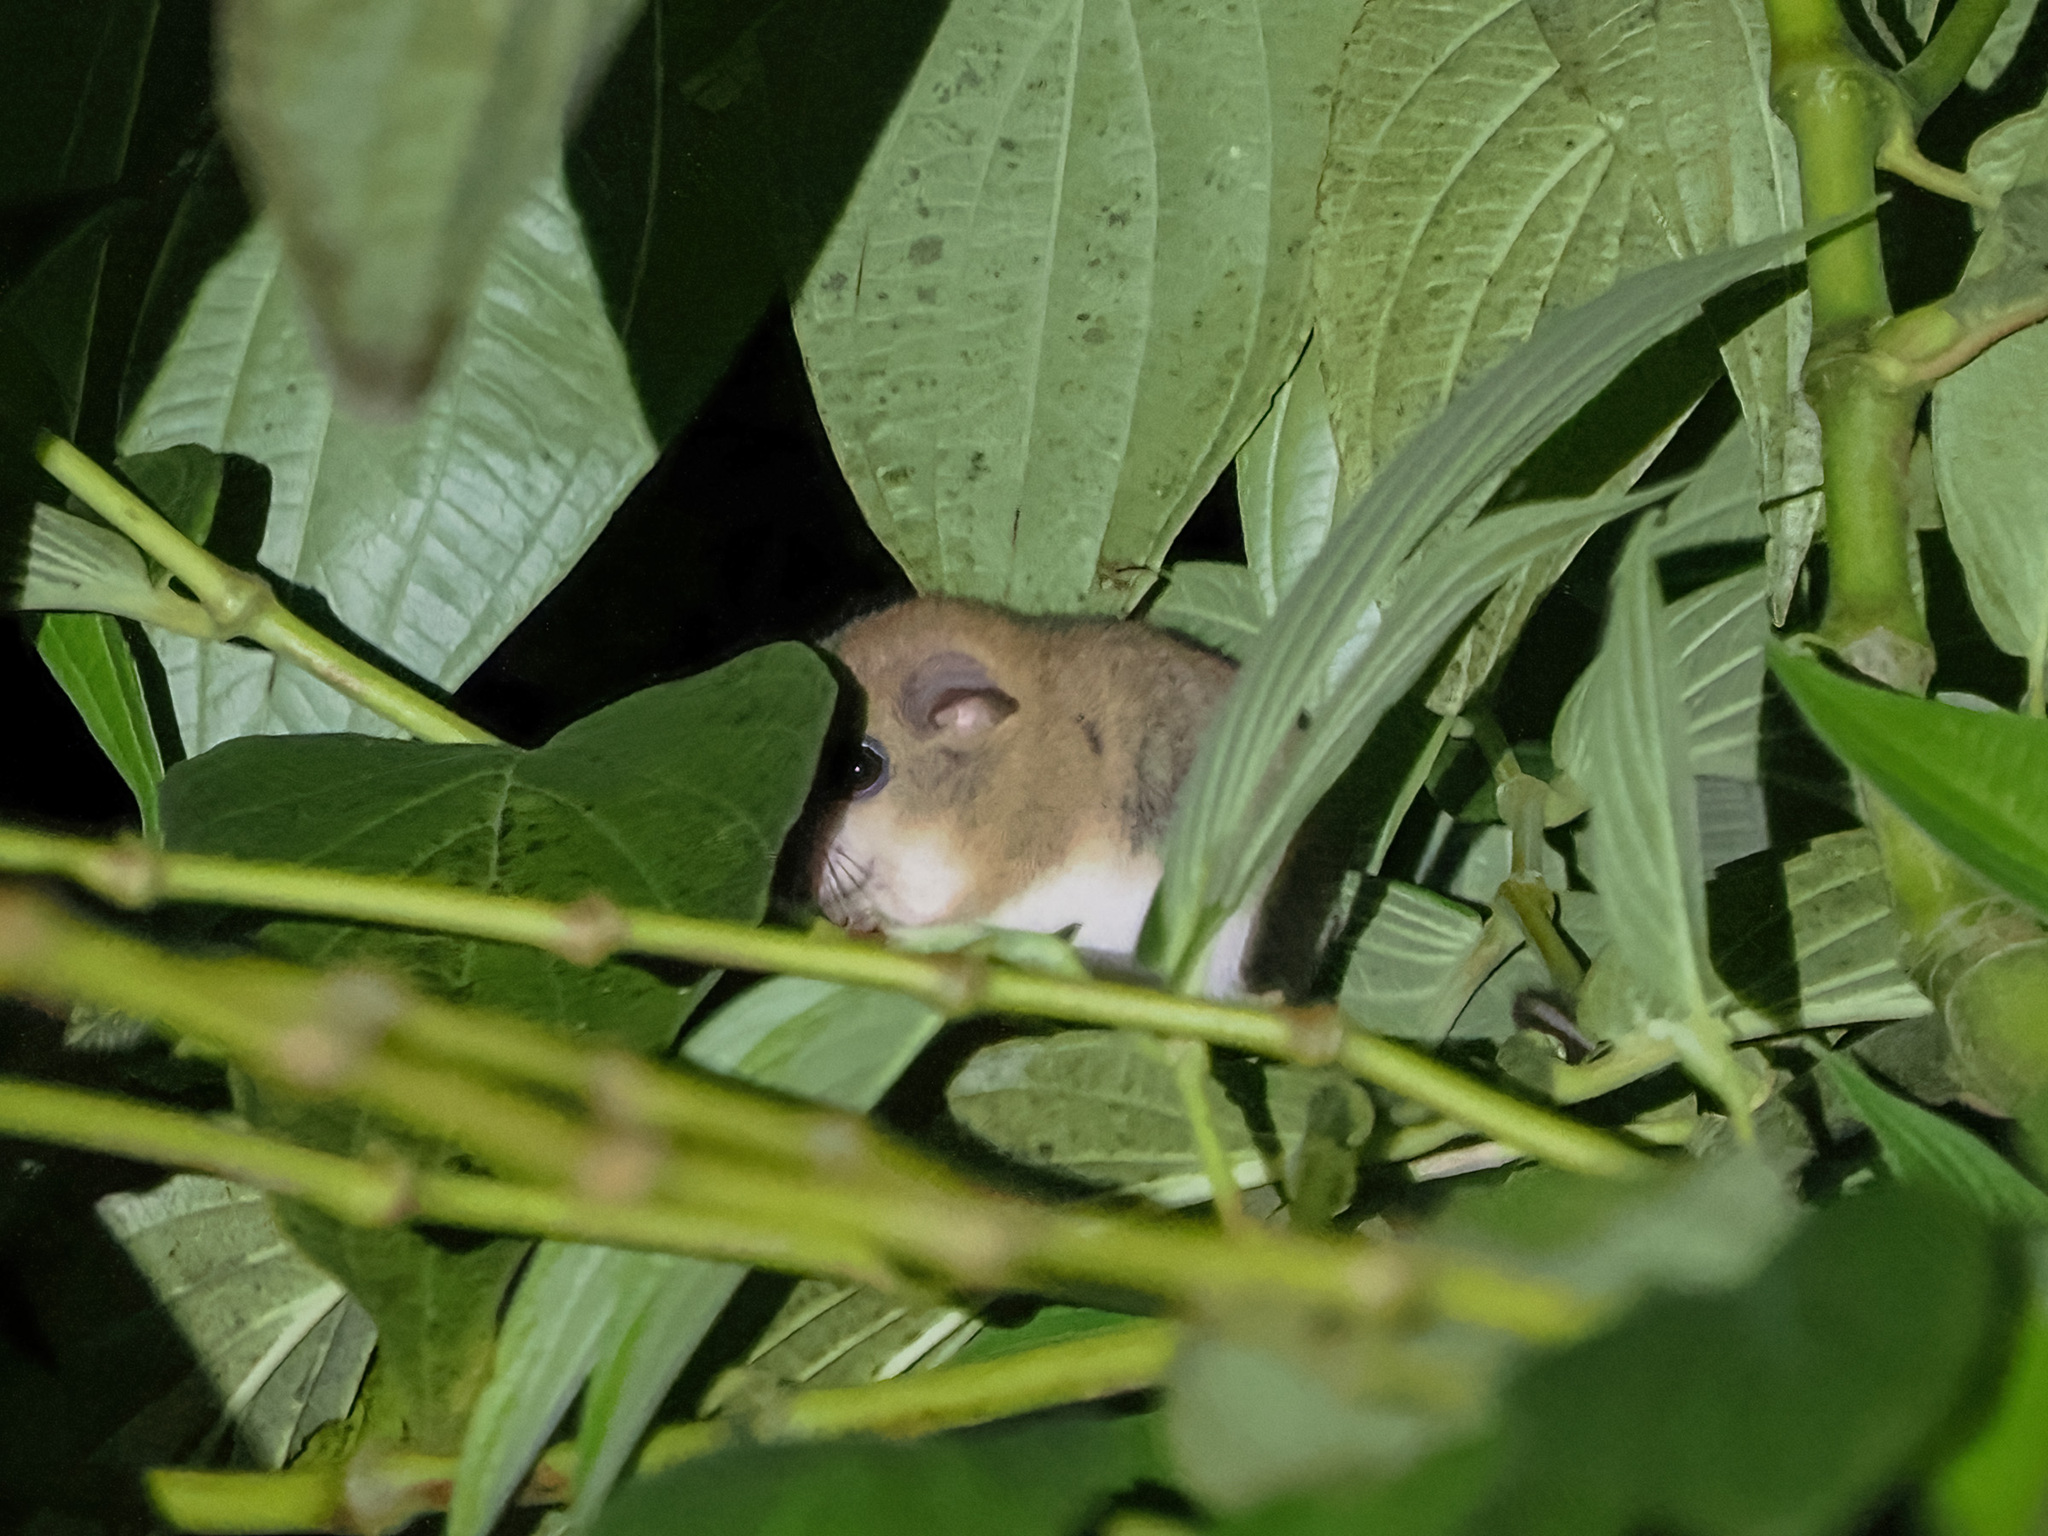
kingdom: Animalia
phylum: Chordata
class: Mammalia
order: Rodentia
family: Muridae
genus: Chiropodomys
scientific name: Chiropodomys gliroides
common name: Indomalayan pencil-tailed tree mouse
